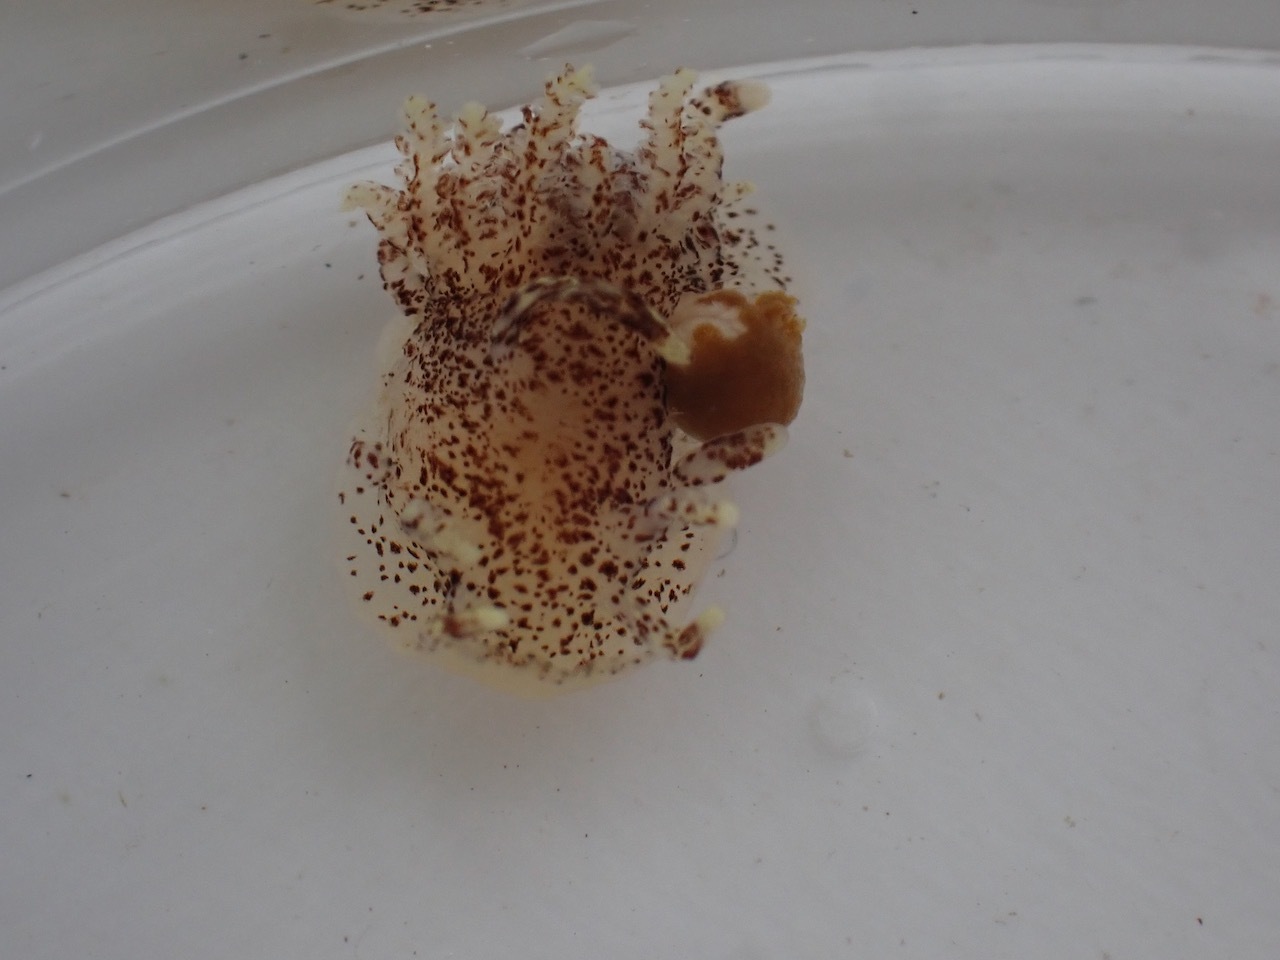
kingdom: Animalia
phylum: Mollusca
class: Gastropoda
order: Nudibranchia
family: Goniodorididae
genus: Okenia
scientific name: Okenia
